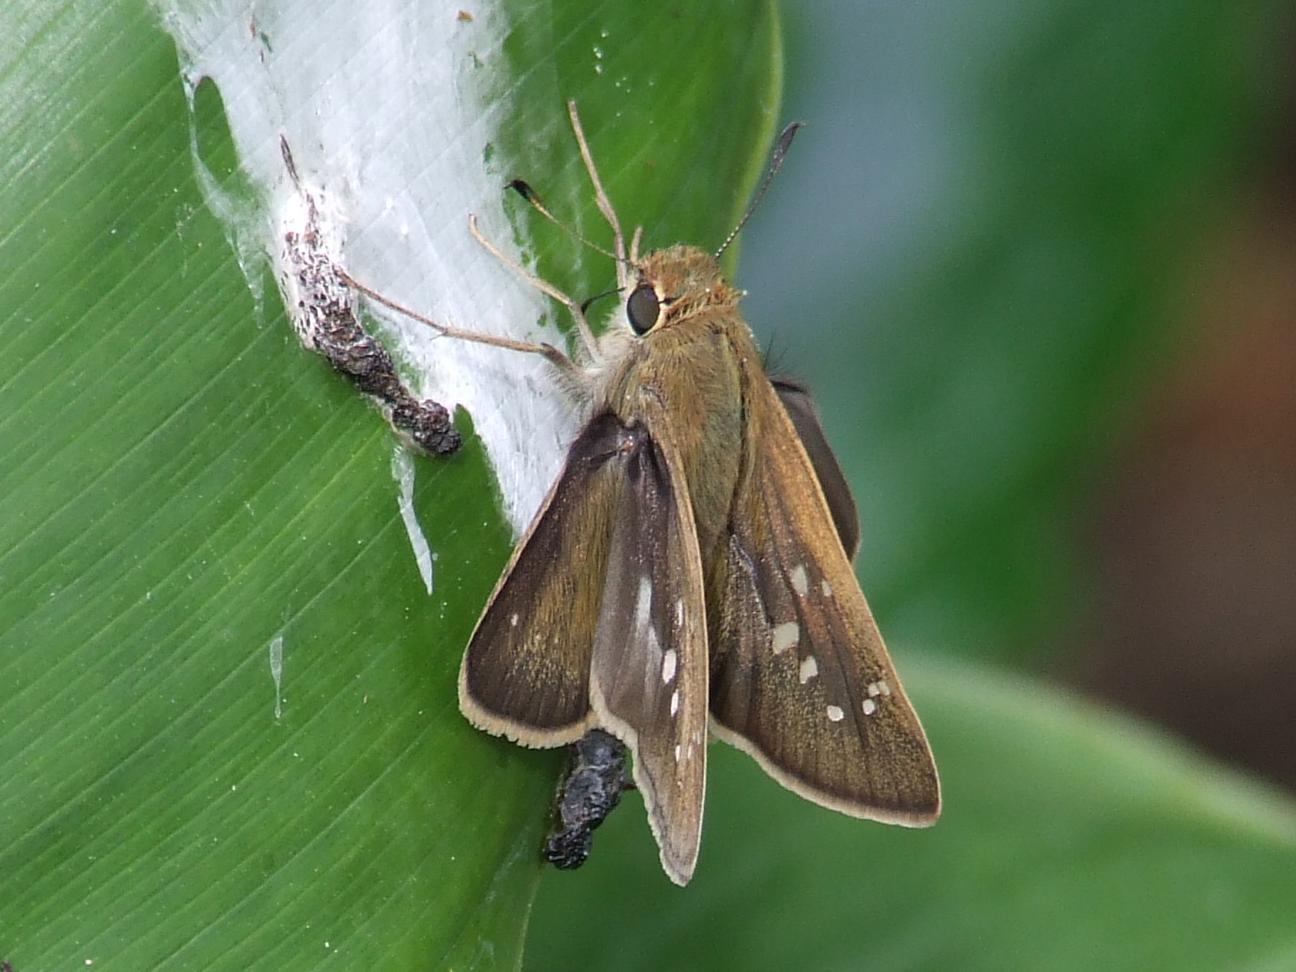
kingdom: Animalia
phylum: Arthropoda
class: Insecta
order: Lepidoptera
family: Hesperiidae
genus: Pelopidas
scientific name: Pelopidas thrax
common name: Millet skipper
